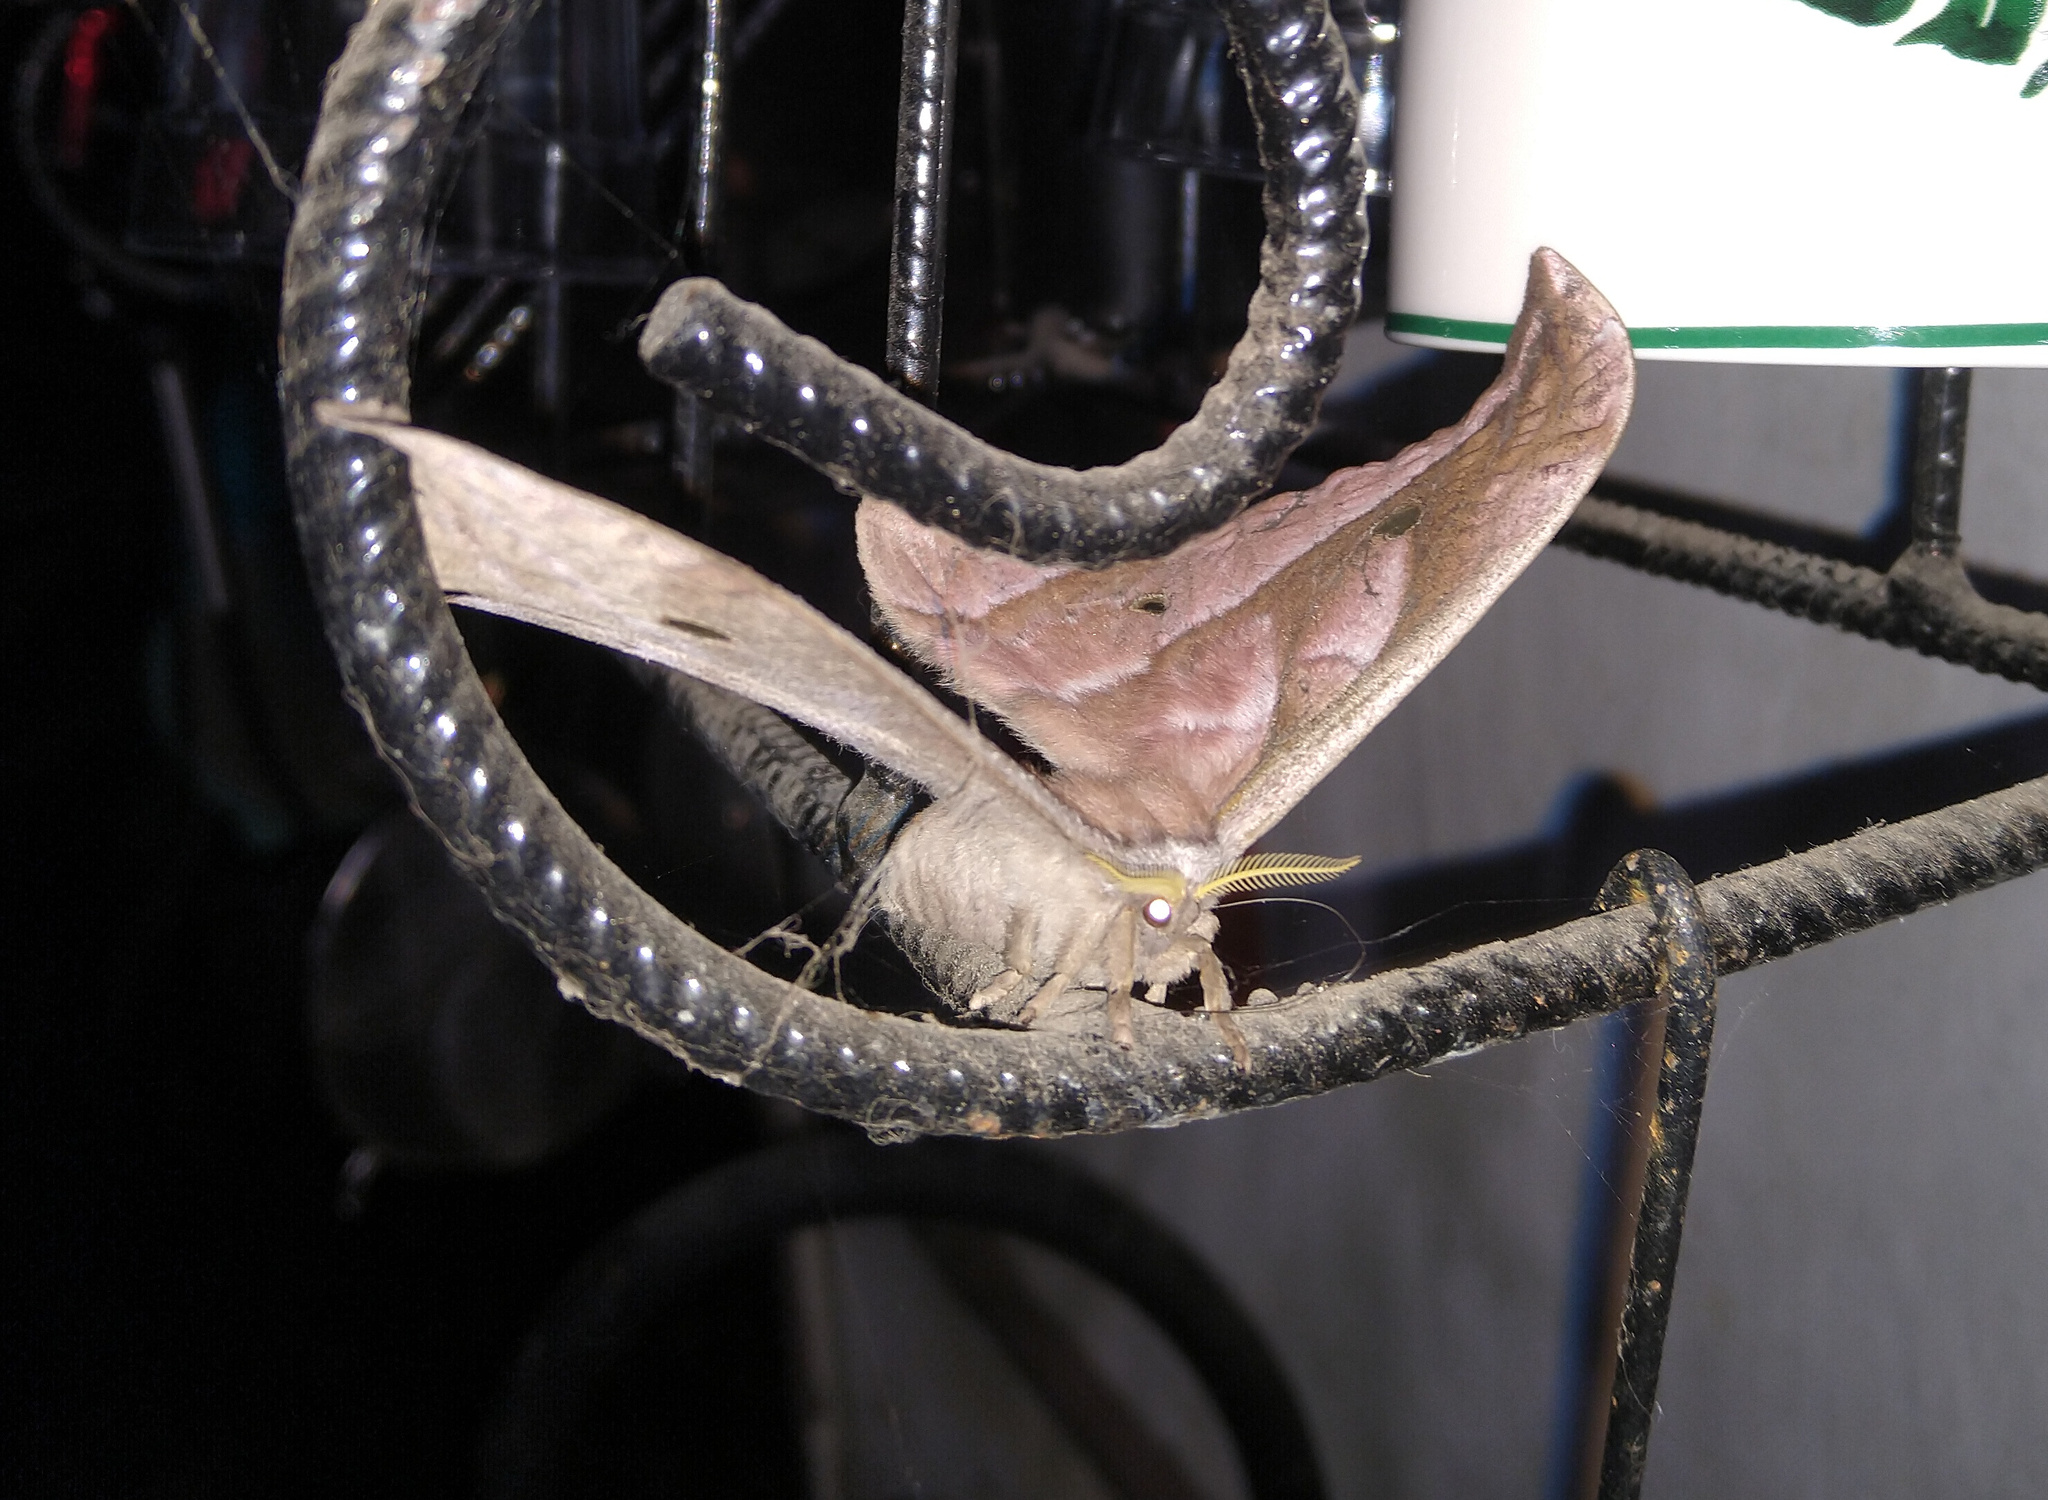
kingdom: Animalia
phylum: Arthropoda
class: Insecta
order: Lepidoptera
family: Saturniidae
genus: Copaxa
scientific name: Copaxa decrescens
